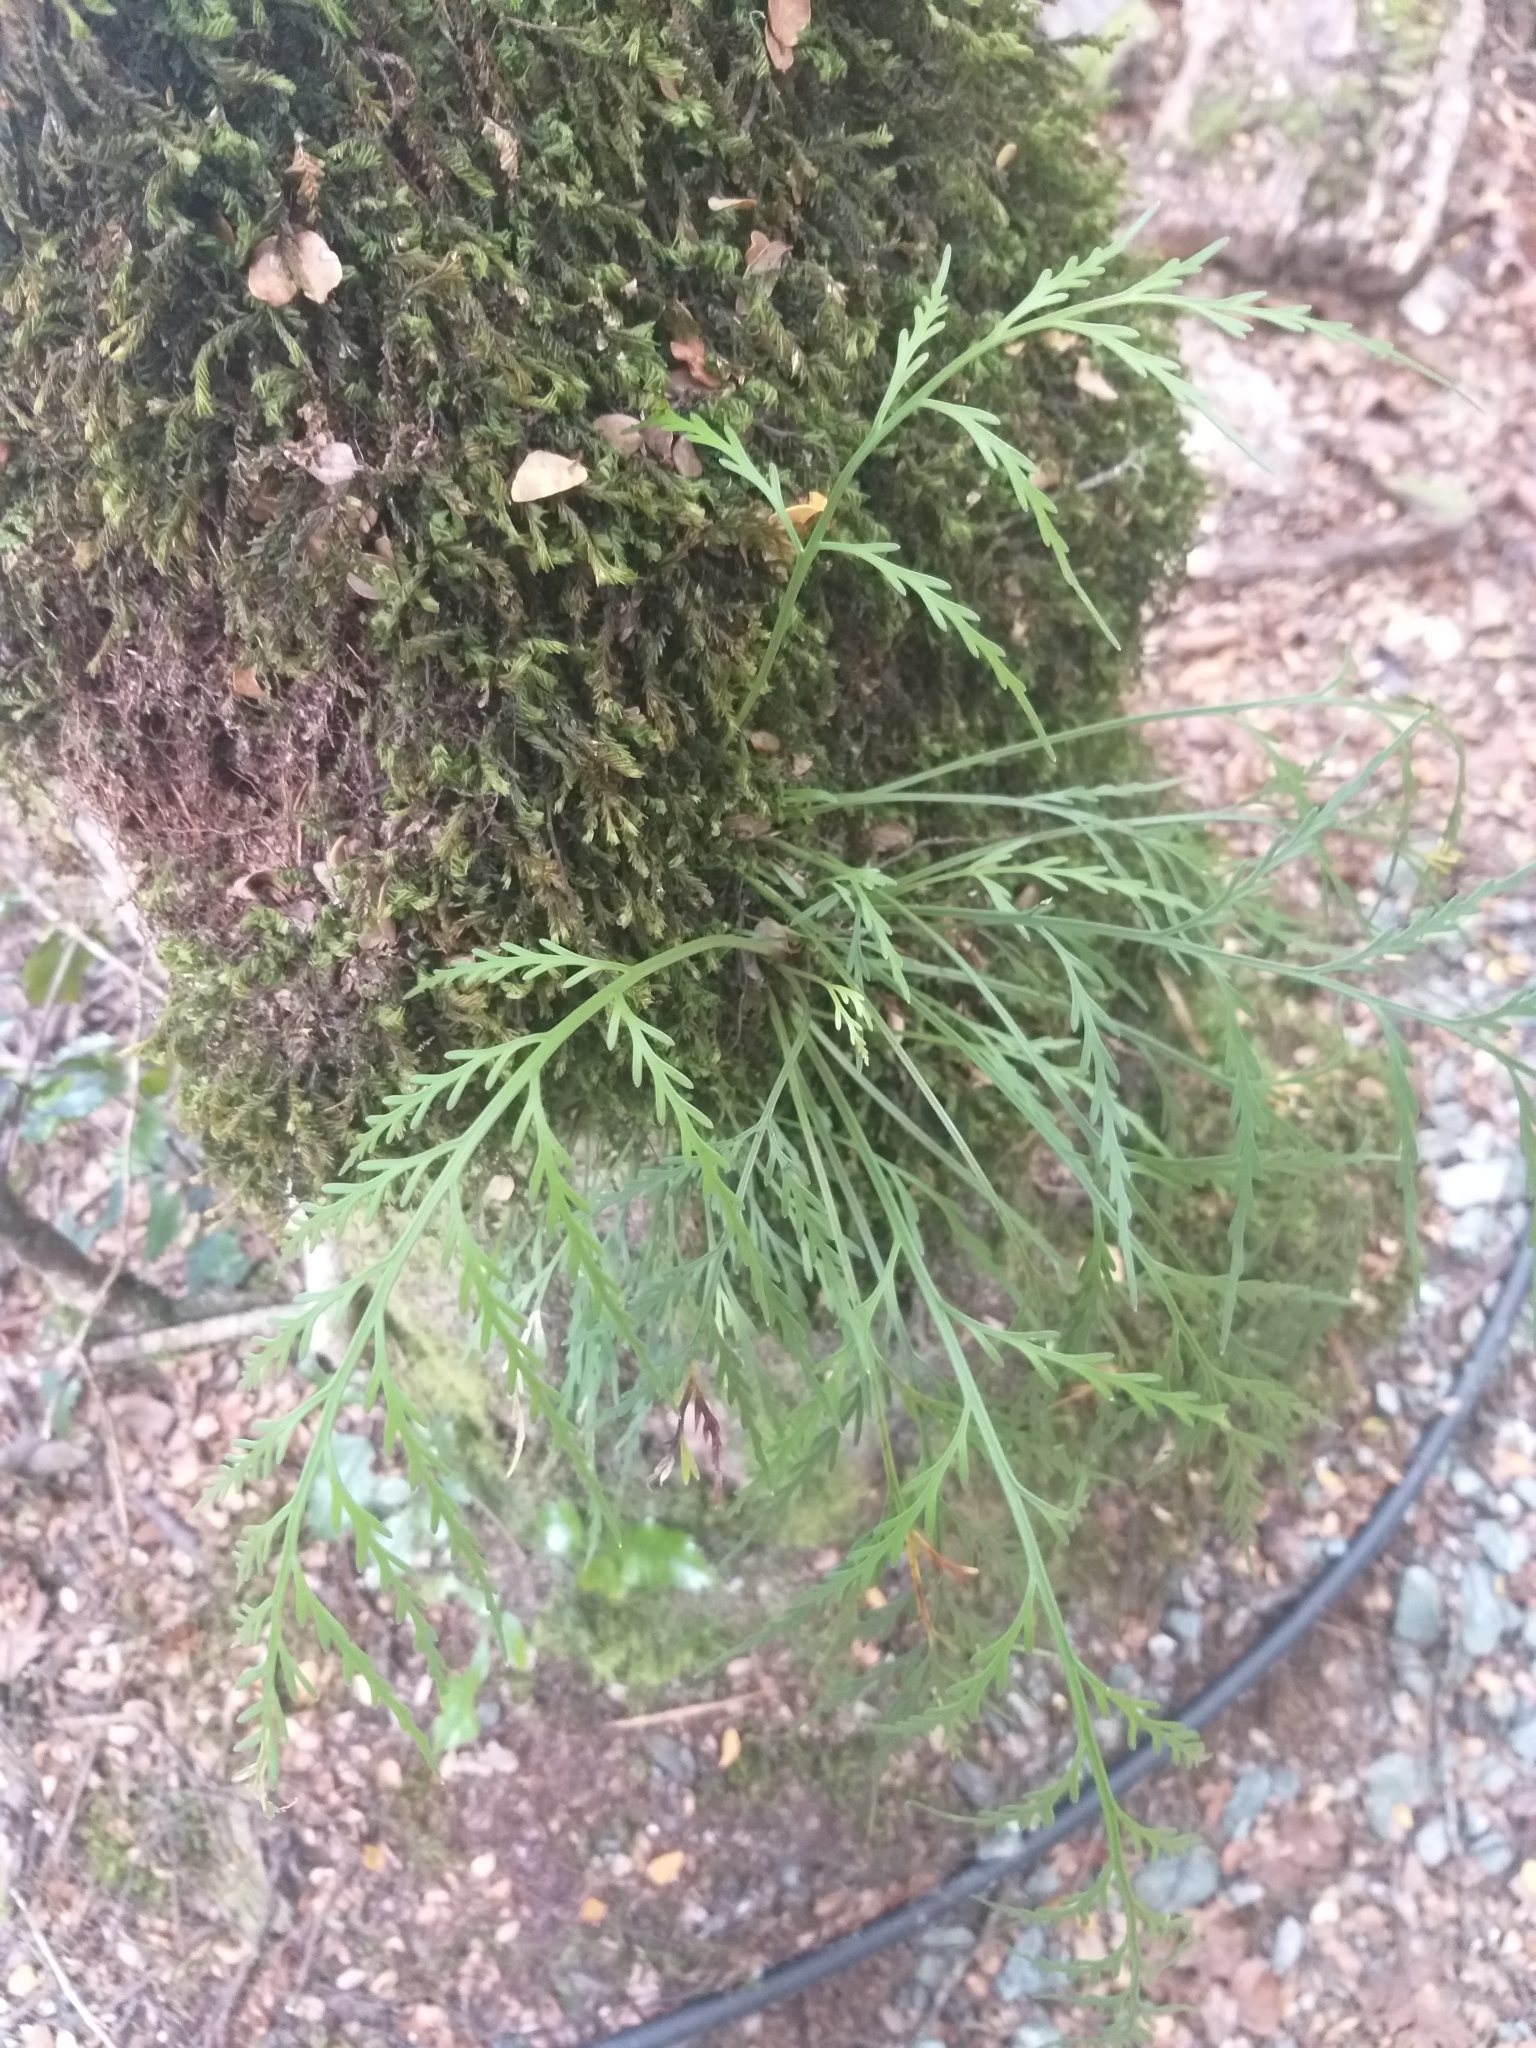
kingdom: Plantae
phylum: Tracheophyta
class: Polypodiopsida
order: Polypodiales
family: Aspleniaceae
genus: Asplenium
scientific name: Asplenium flaccidum
